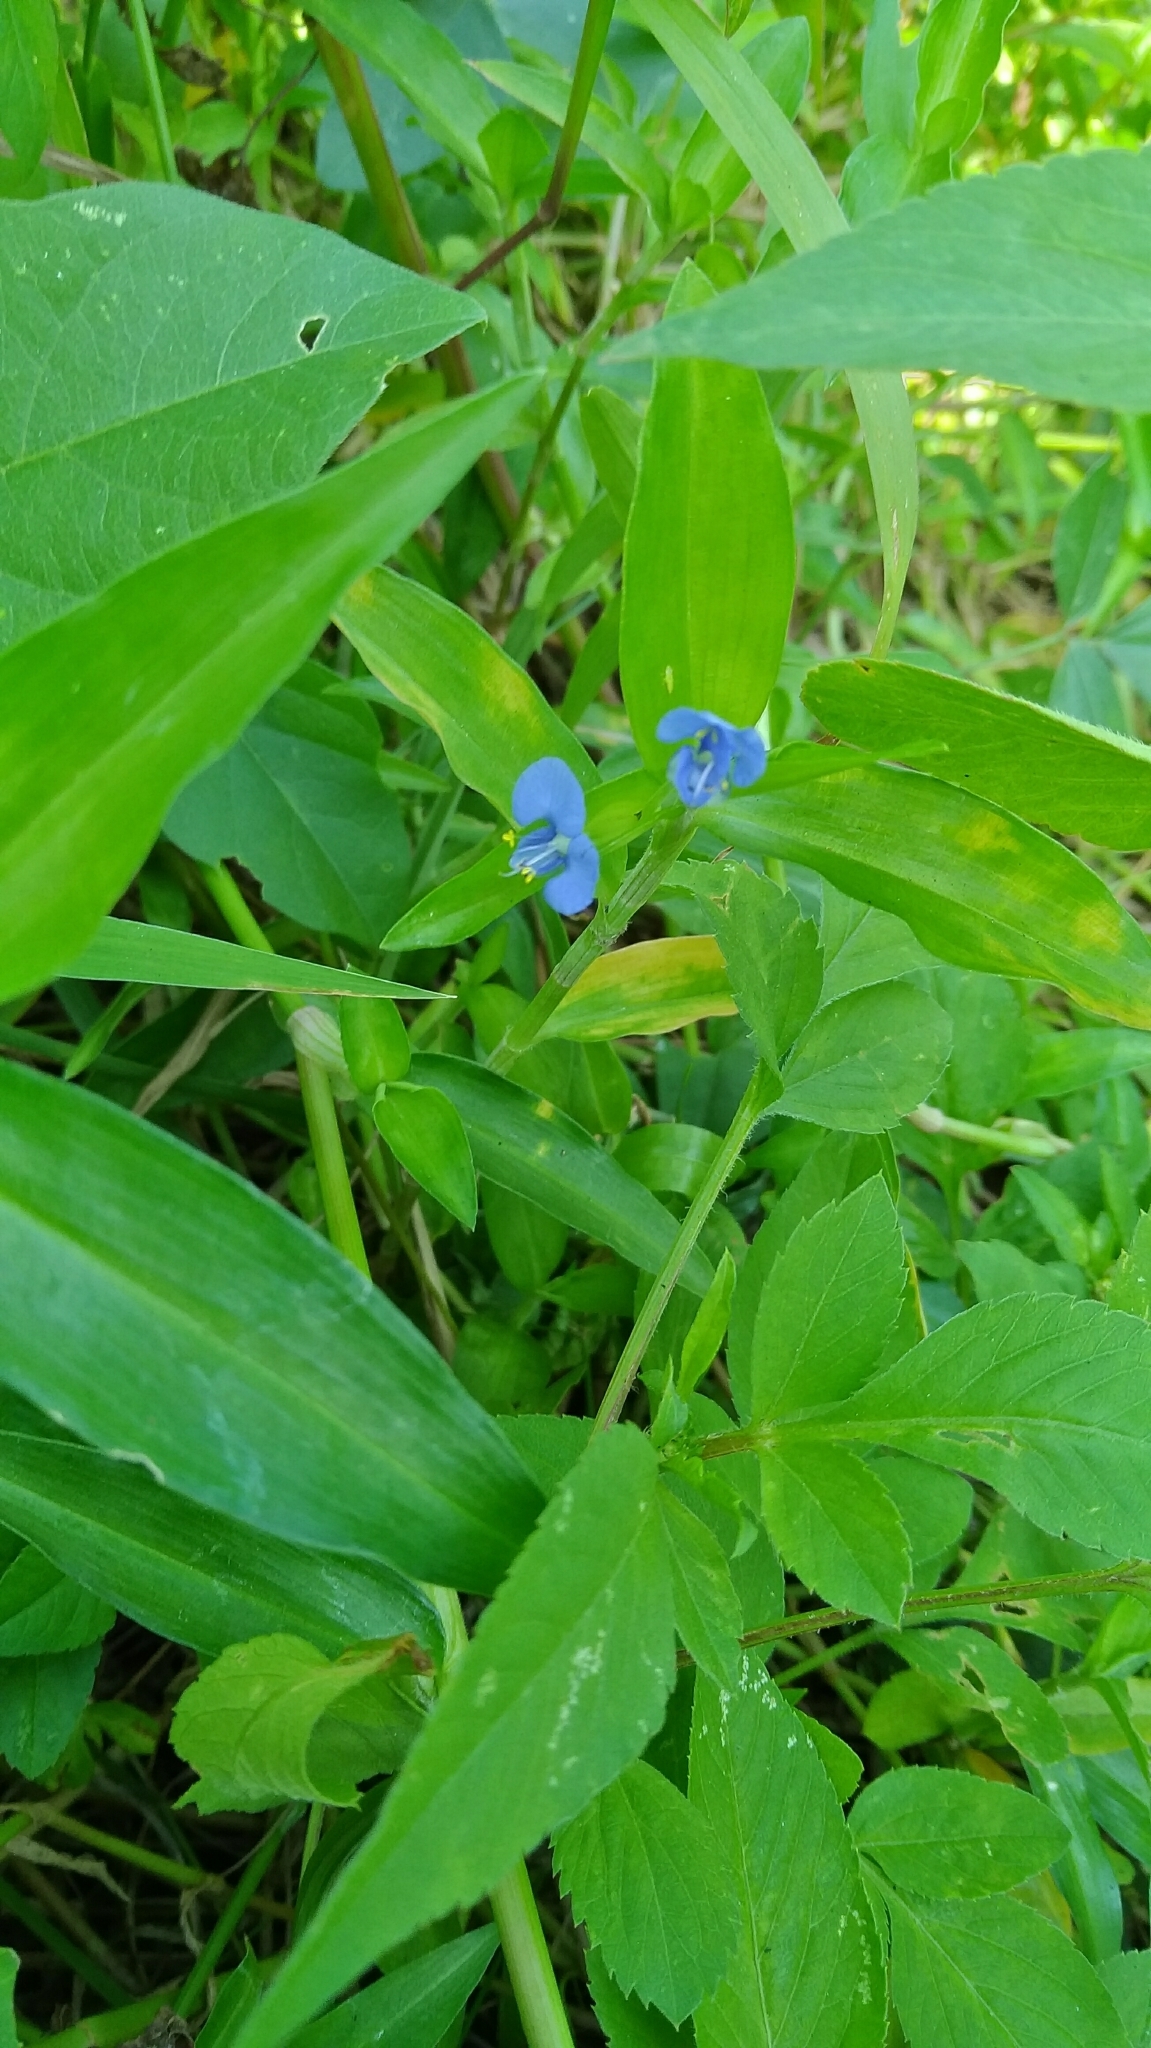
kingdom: Plantae
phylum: Tracheophyta
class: Liliopsida
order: Commelinales
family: Commelinaceae
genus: Commelina
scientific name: Commelina communis
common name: Asiatic dayflower
